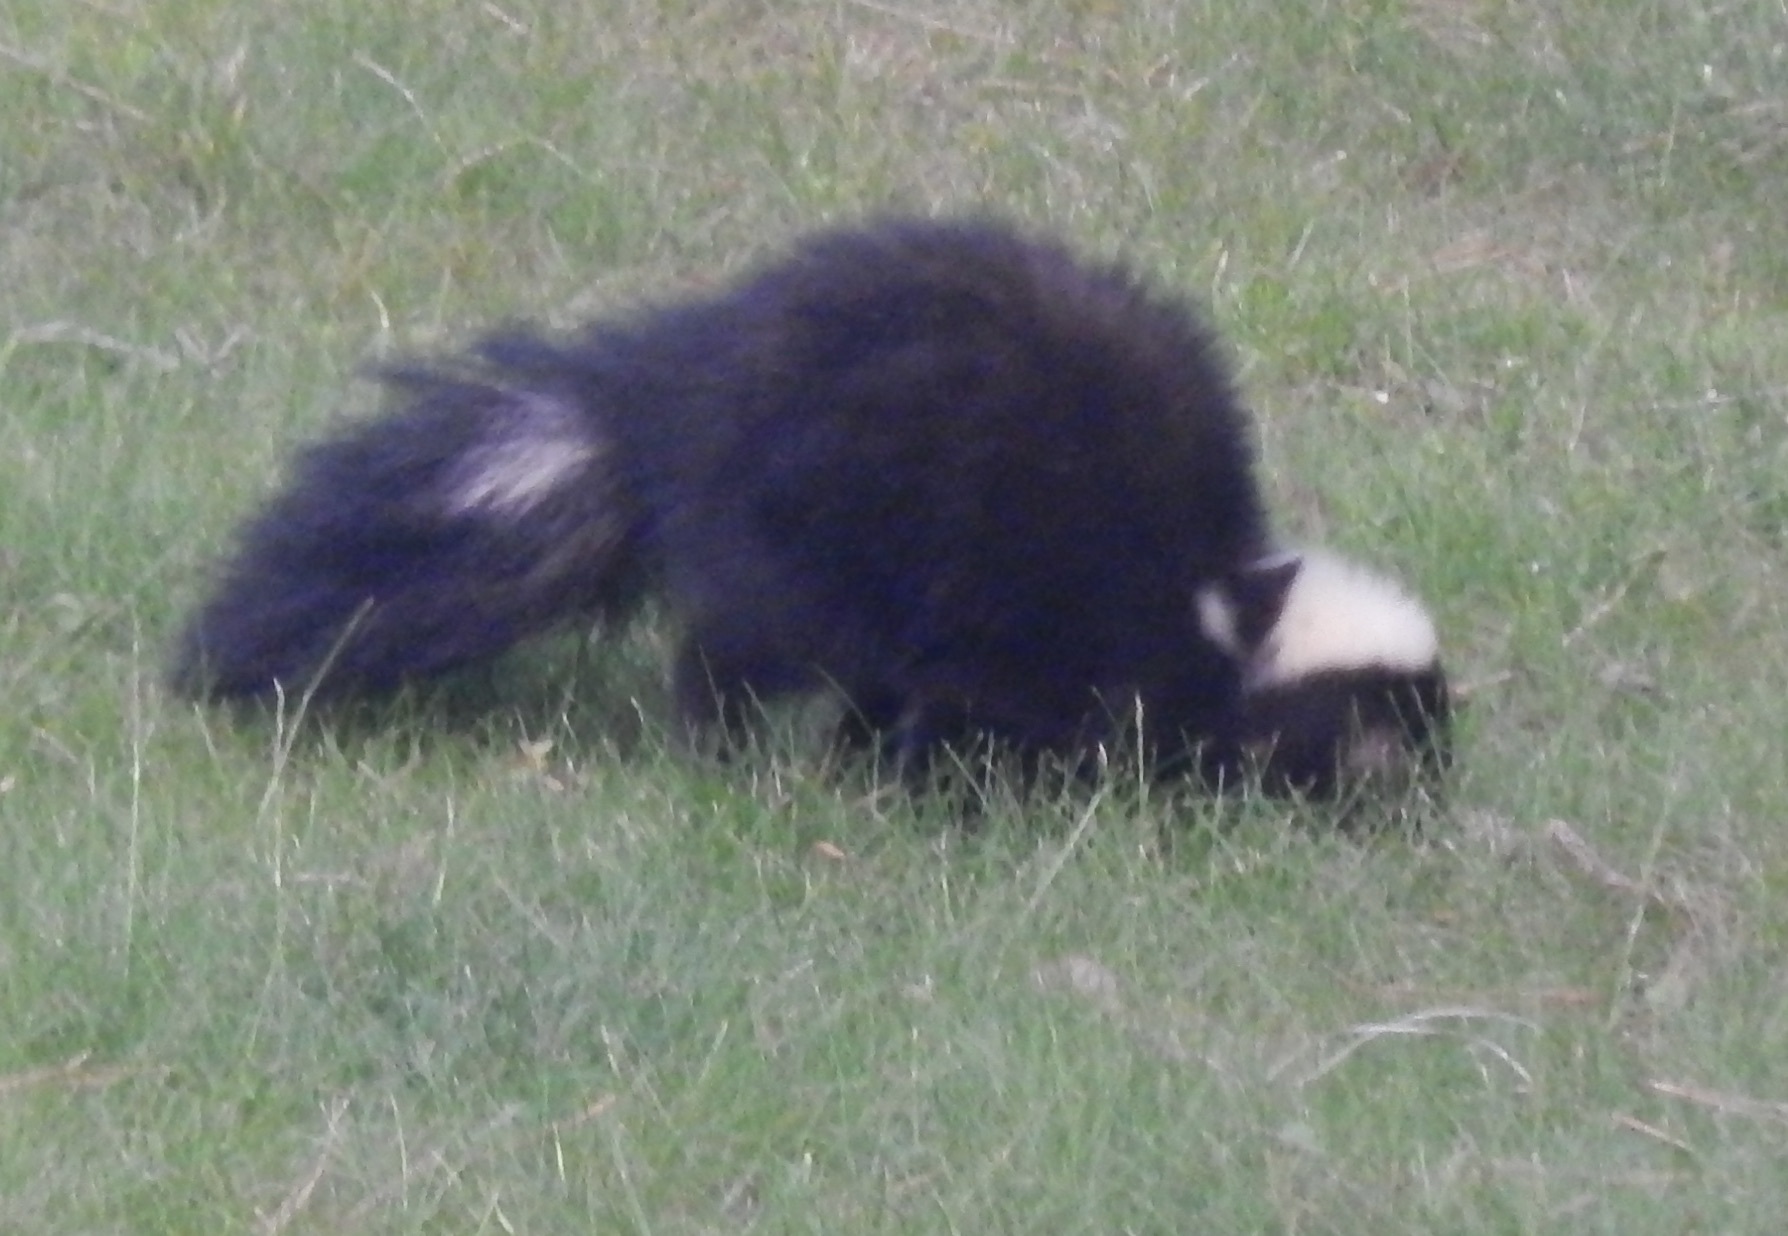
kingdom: Animalia
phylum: Chordata
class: Mammalia
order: Carnivora
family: Mephitidae
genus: Mephitis
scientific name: Mephitis mephitis
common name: Striped skunk
